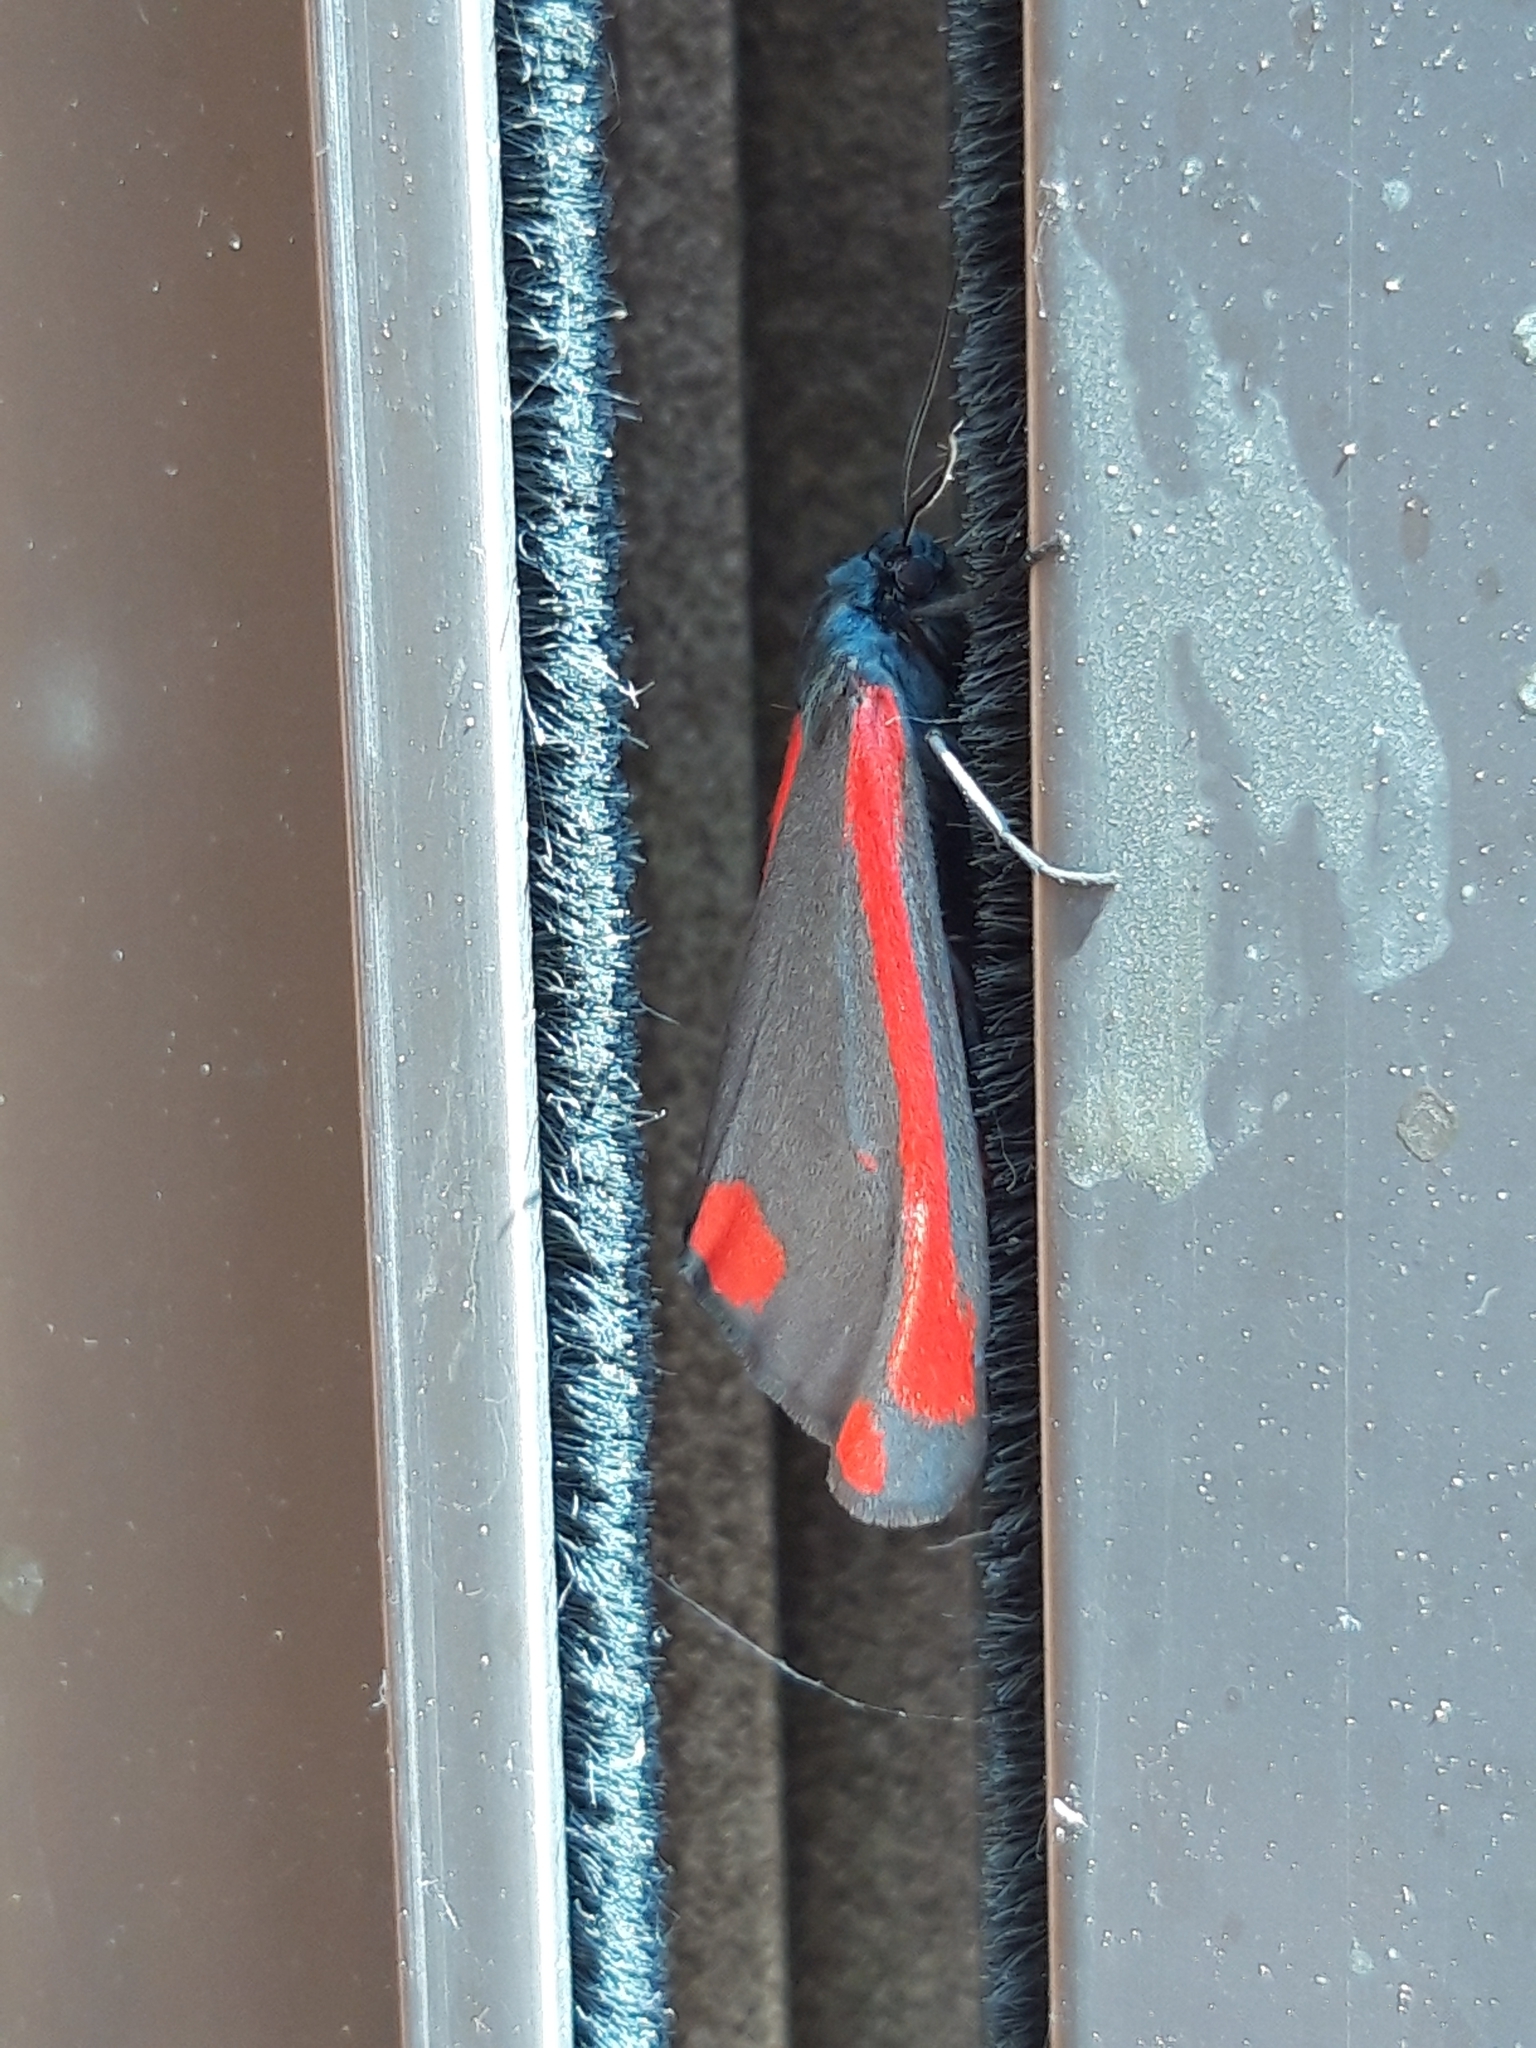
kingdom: Animalia
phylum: Arthropoda
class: Insecta
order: Lepidoptera
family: Erebidae
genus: Tyria
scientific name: Tyria jacobaeae
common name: Cinnabar
